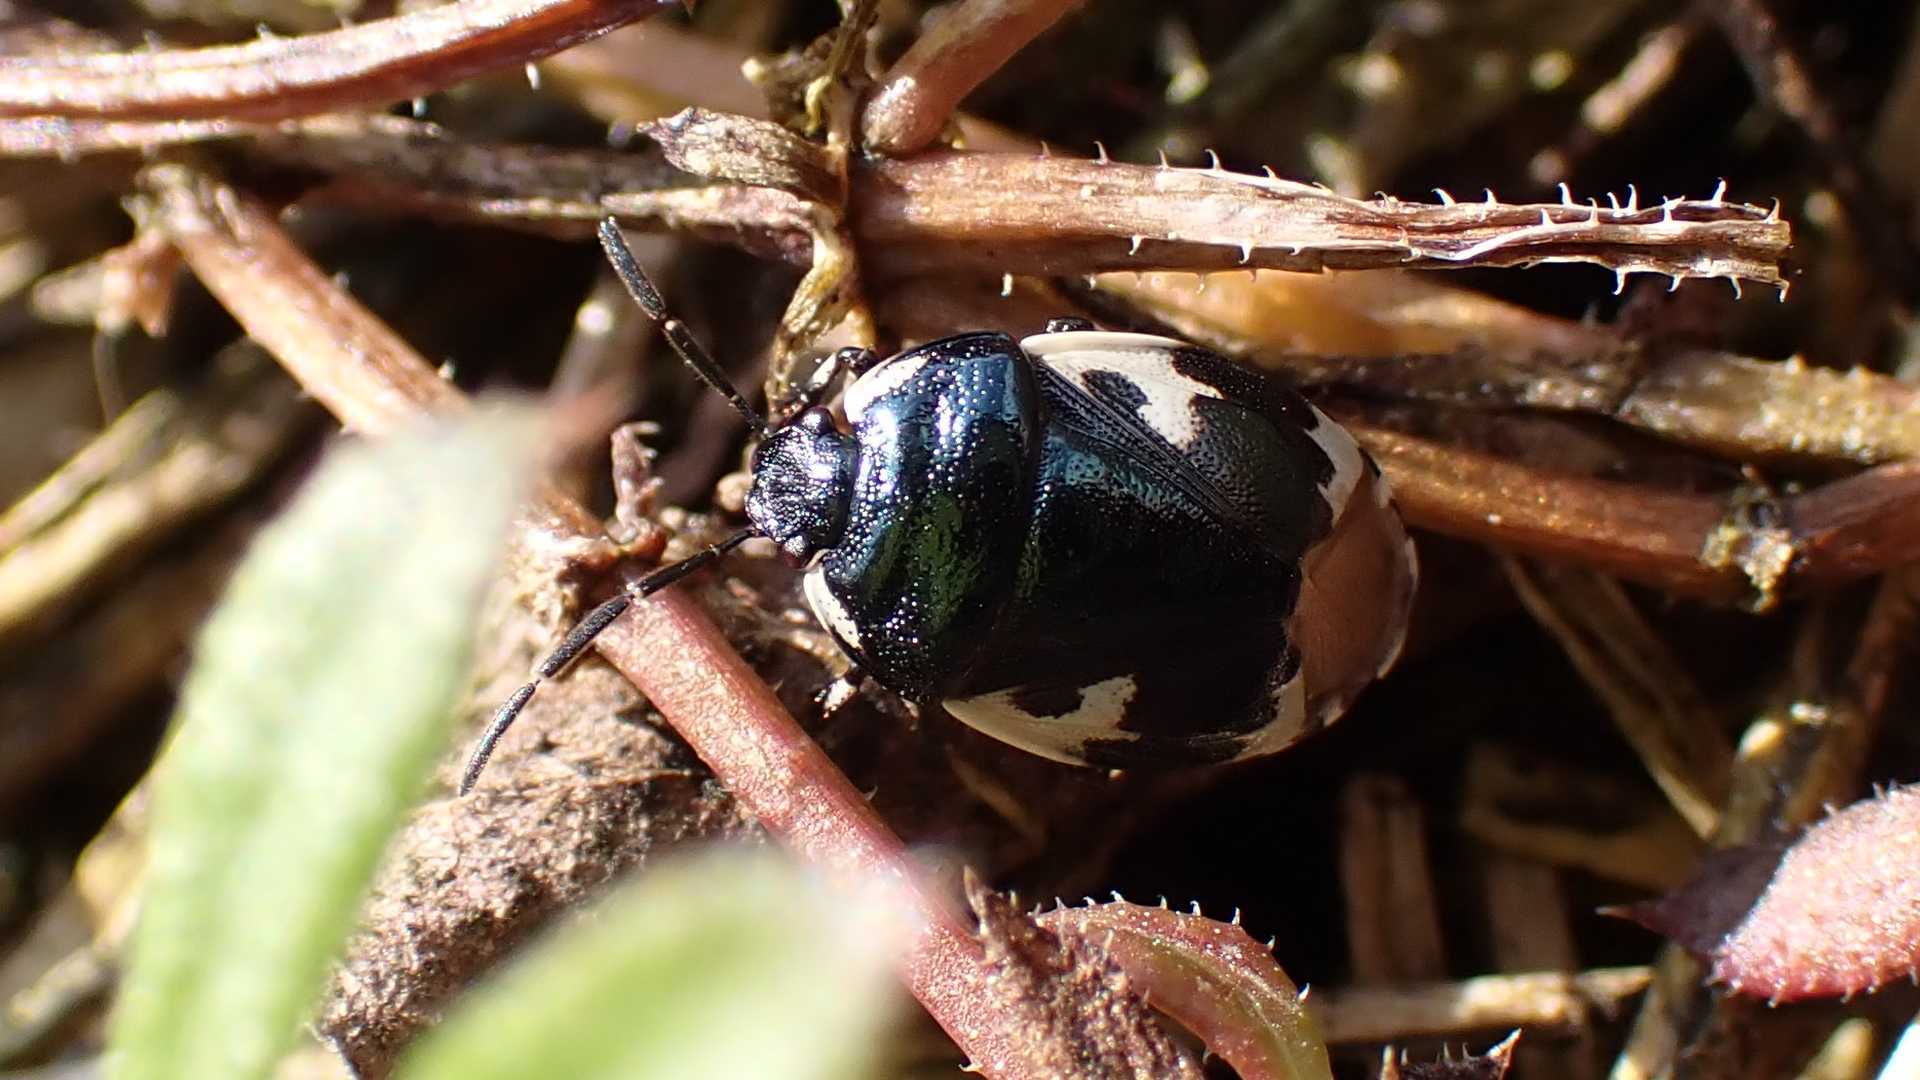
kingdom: Animalia
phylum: Arthropoda
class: Insecta
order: Hemiptera
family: Cydnidae
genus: Tritomegas
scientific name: Tritomegas bicolor
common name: Pied shieldbug
